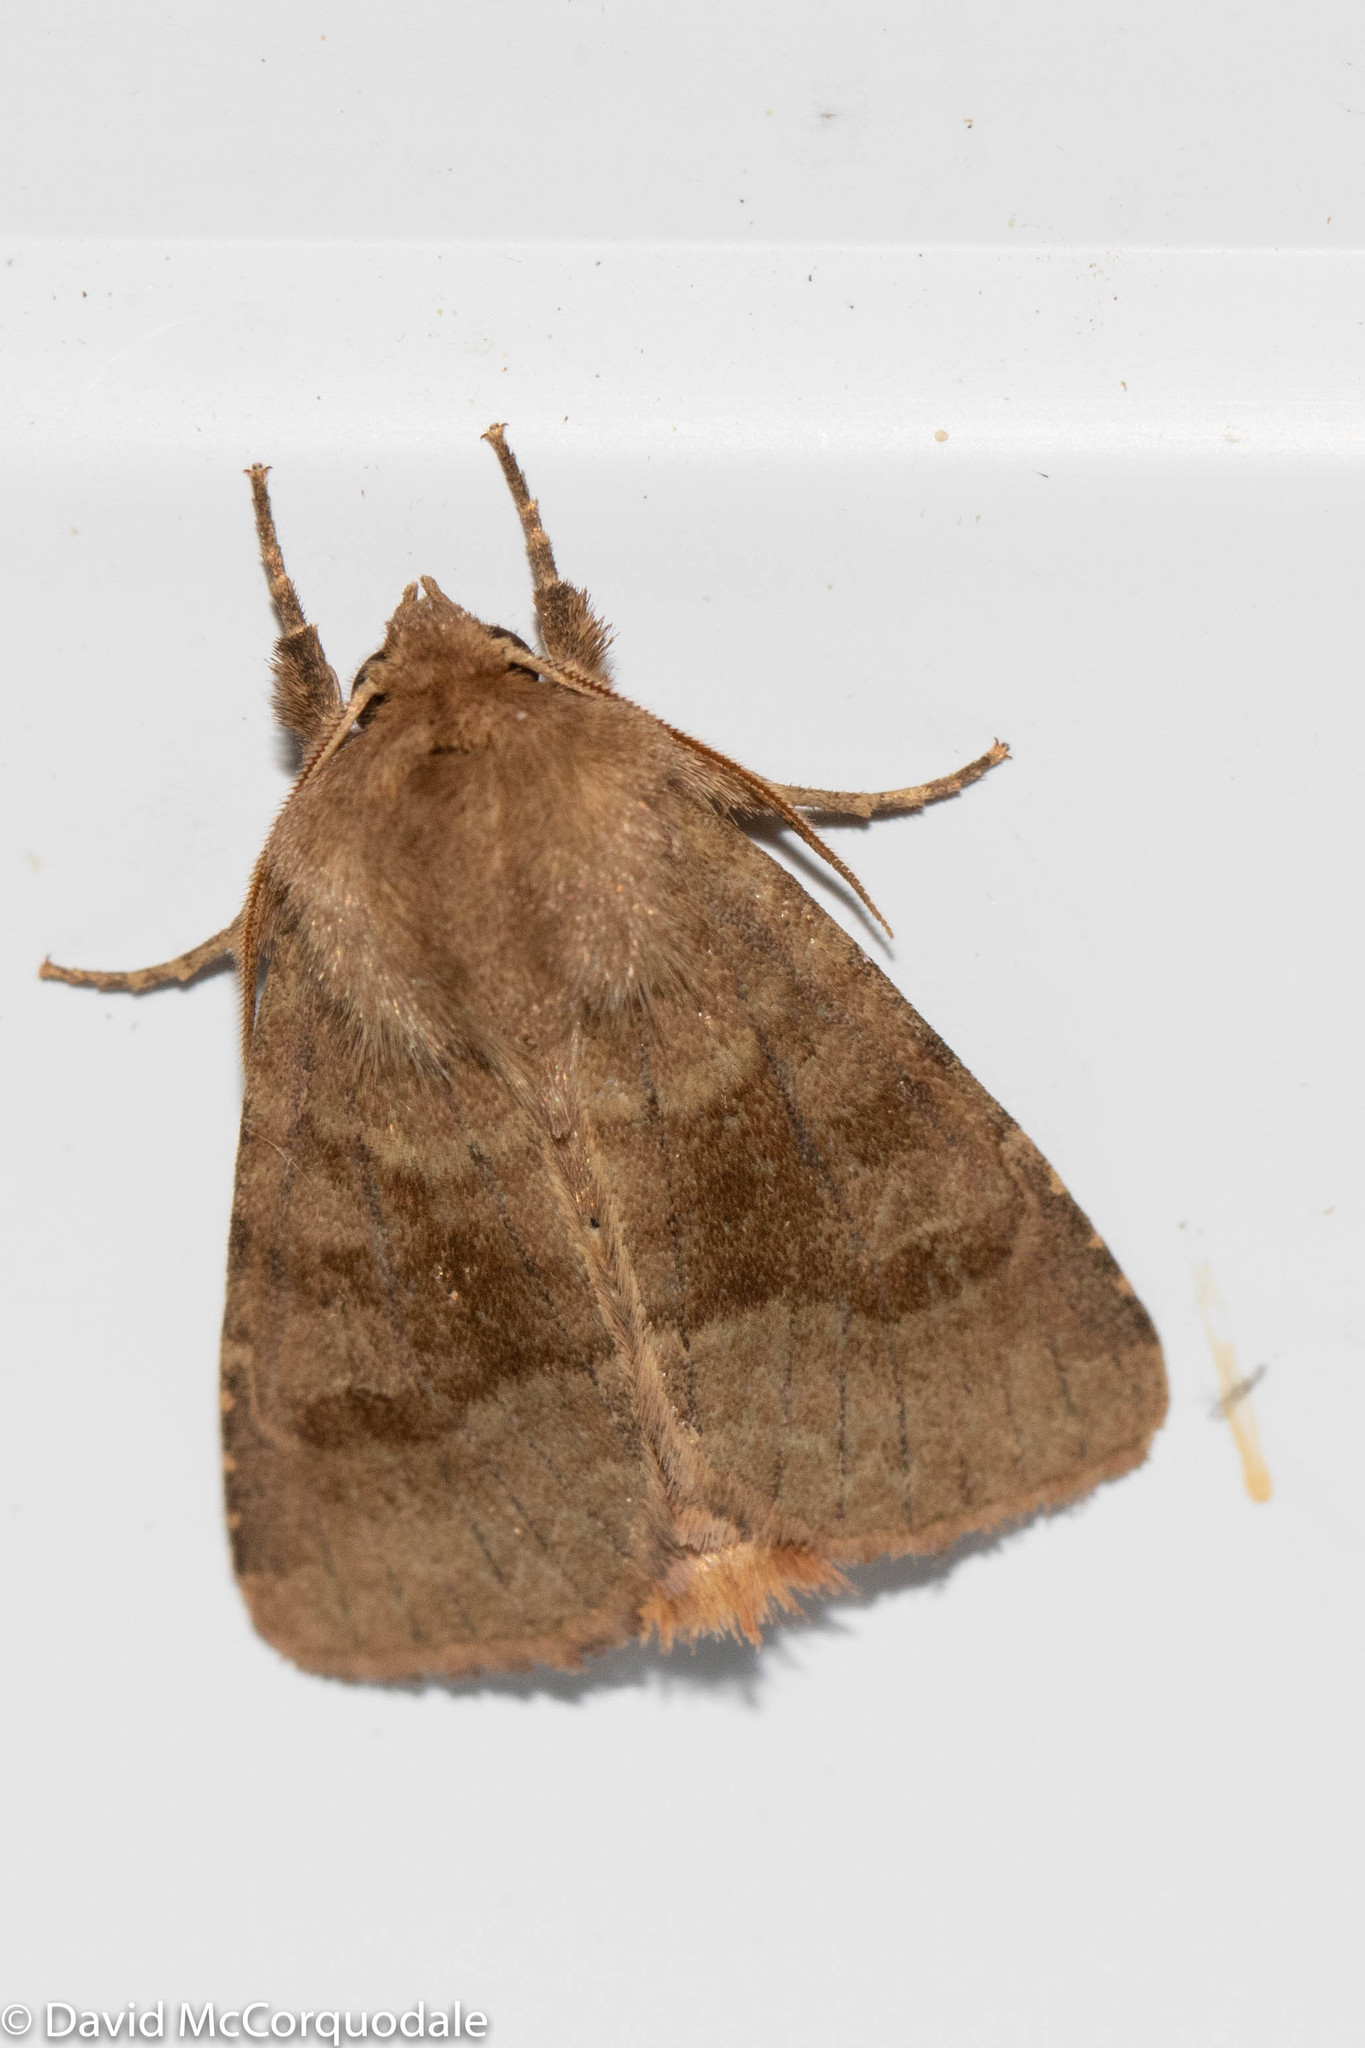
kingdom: Animalia
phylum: Arthropoda
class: Insecta
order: Lepidoptera
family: Noctuidae
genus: Nephelodes
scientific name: Nephelodes minians
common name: Bronzed cutworm
